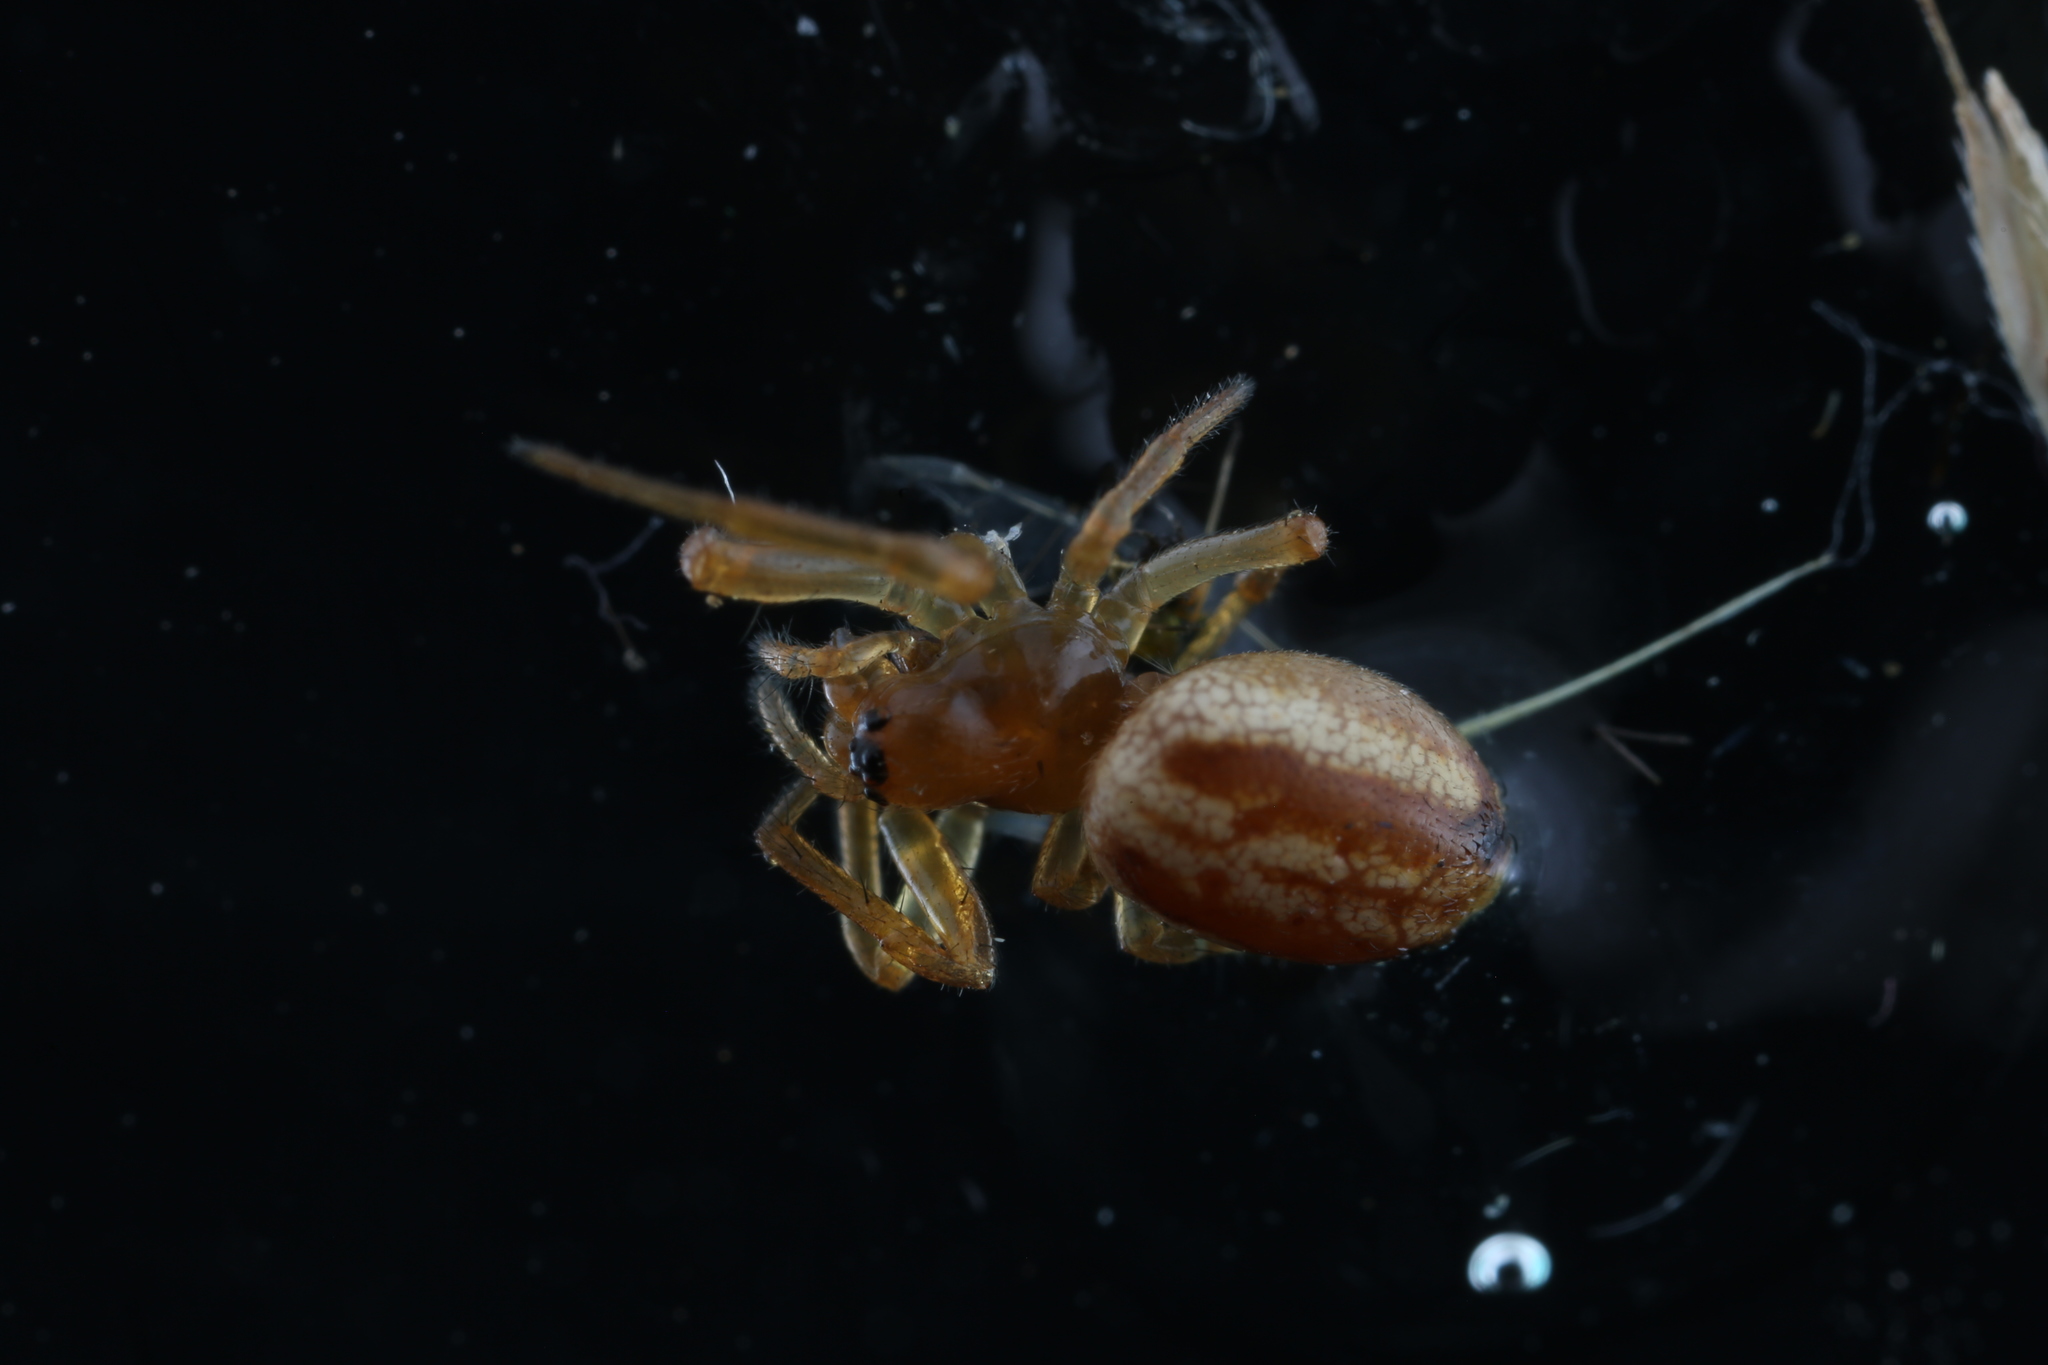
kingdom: Animalia
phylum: Arthropoda
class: Arachnida
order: Araneae
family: Araneidae
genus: Araneus
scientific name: Araneus pratensis
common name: Openfield orbweaver
